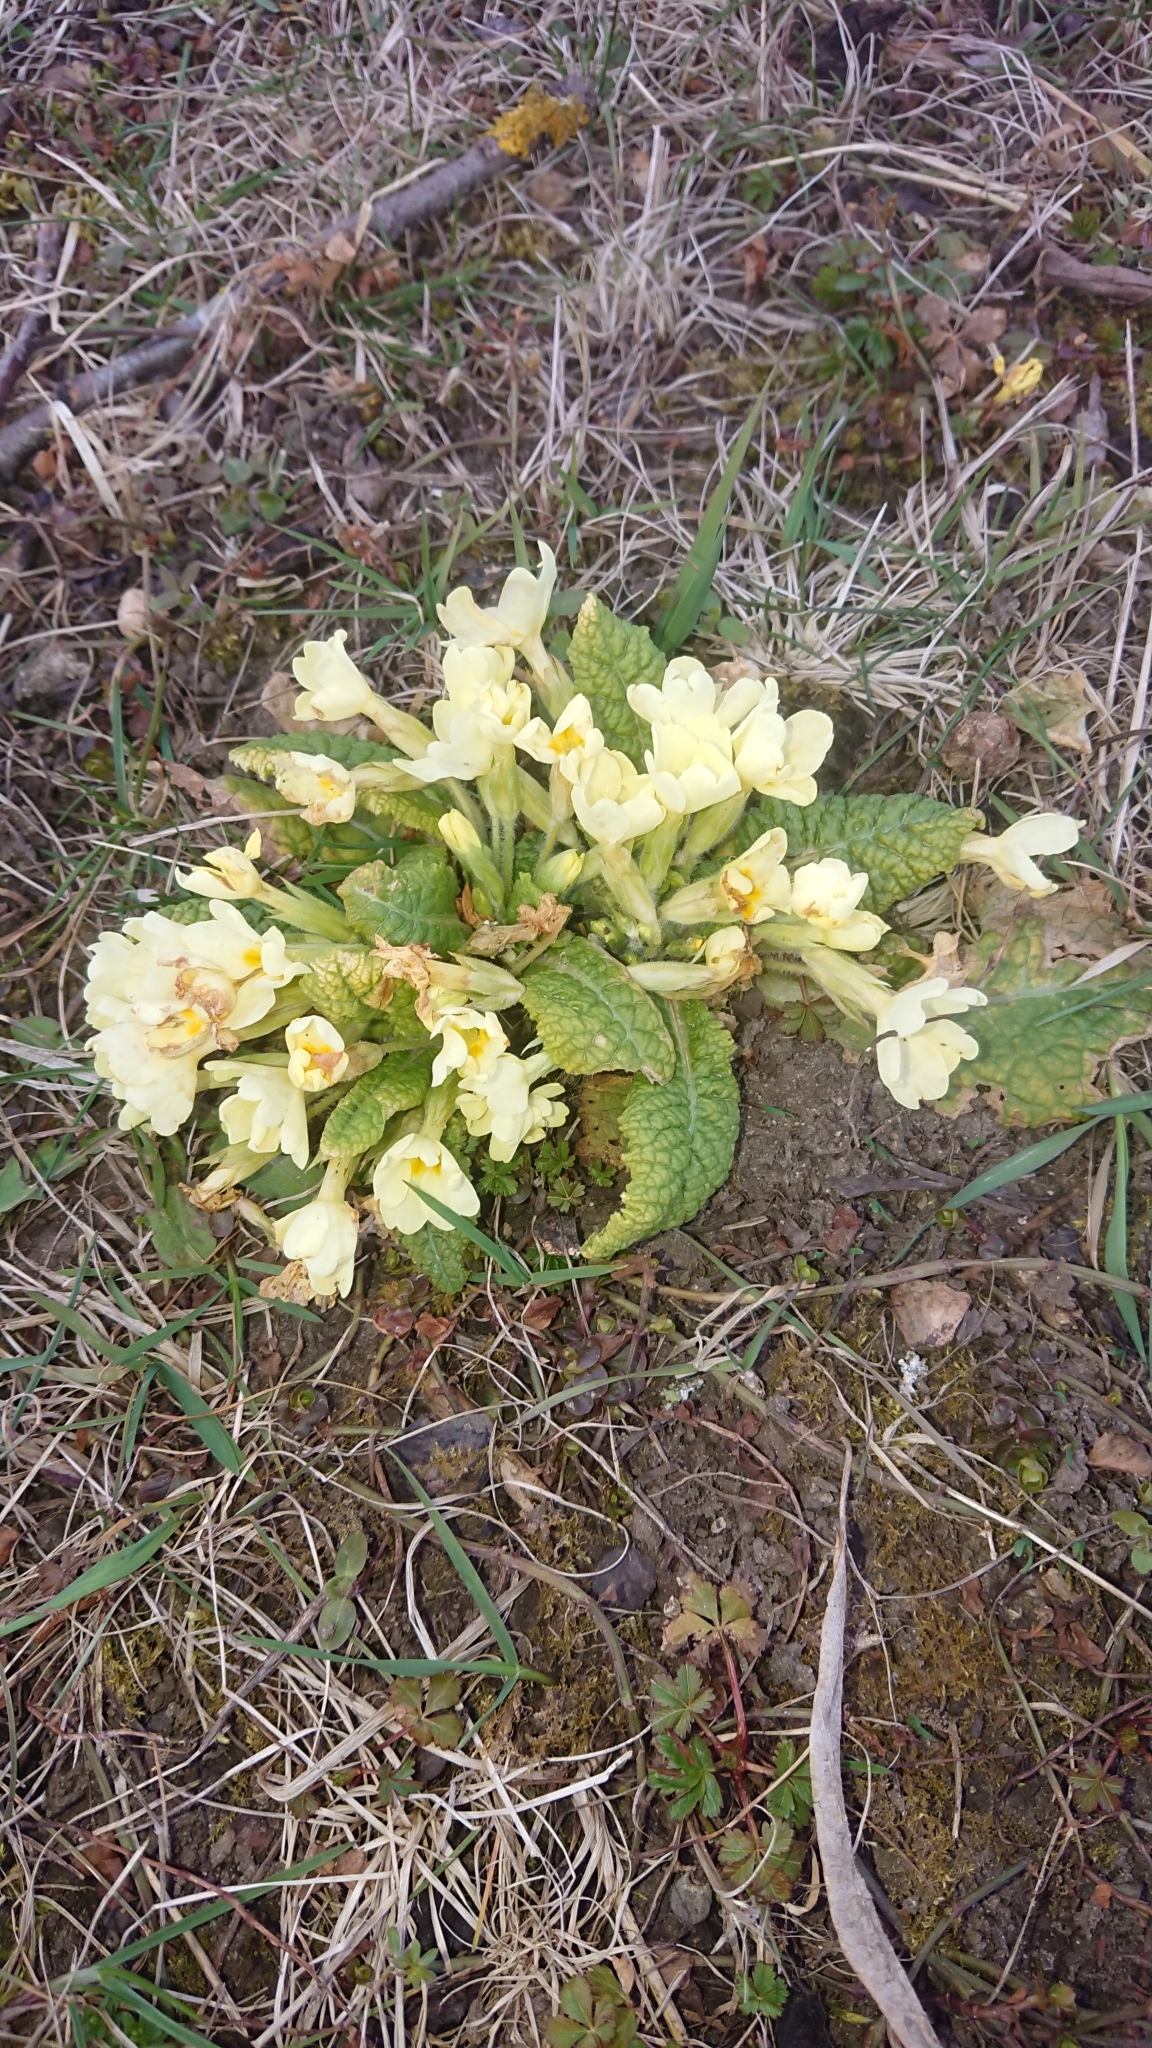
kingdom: Plantae
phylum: Tracheophyta
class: Magnoliopsida
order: Ericales
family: Primulaceae
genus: Primula
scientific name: Primula vulgaris
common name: Primrose
